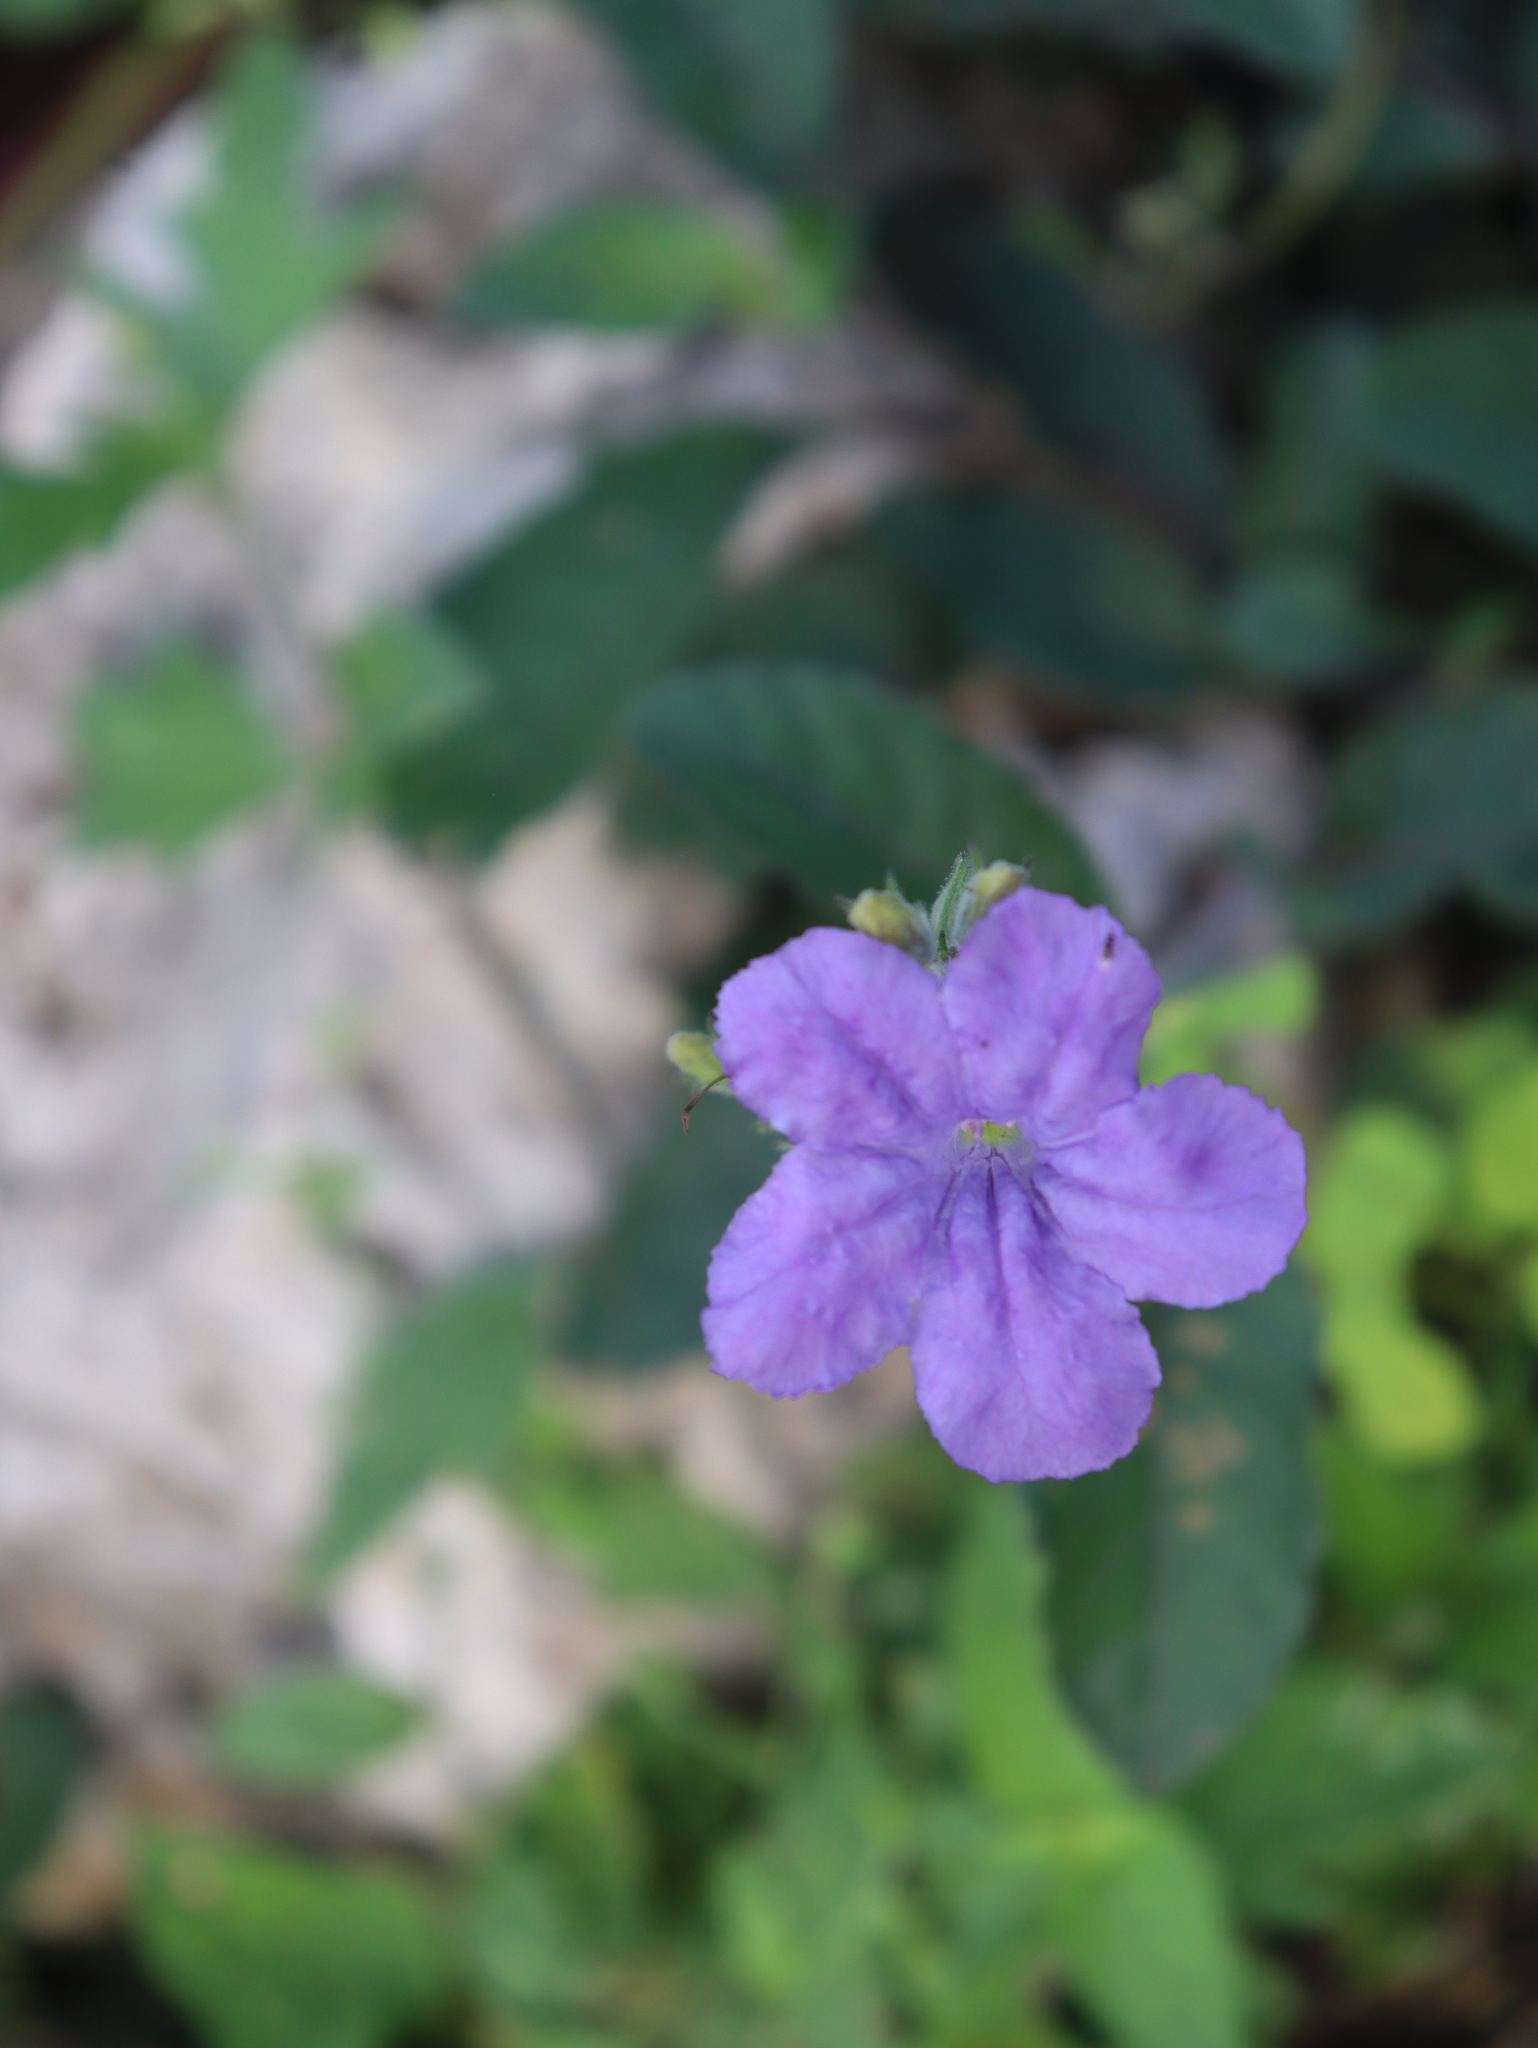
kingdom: Plantae
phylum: Tracheophyta
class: Magnoliopsida
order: Lamiales
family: Acanthaceae
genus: Ruellia
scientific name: Ruellia ciliatiflora
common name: Hairyflower wild petunia
